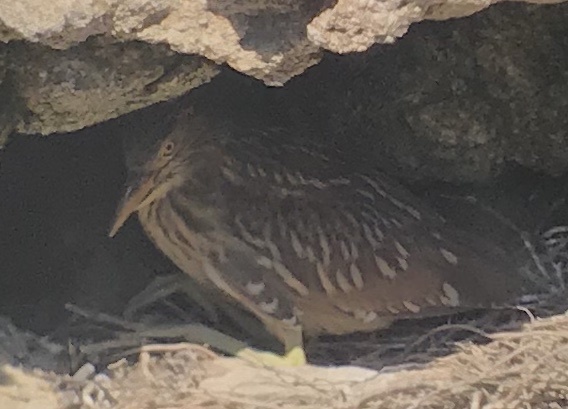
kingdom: Animalia
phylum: Chordata
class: Aves
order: Pelecaniformes
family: Ardeidae
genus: Nycticorax
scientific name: Nycticorax nycticorax
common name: Black-crowned night heron
